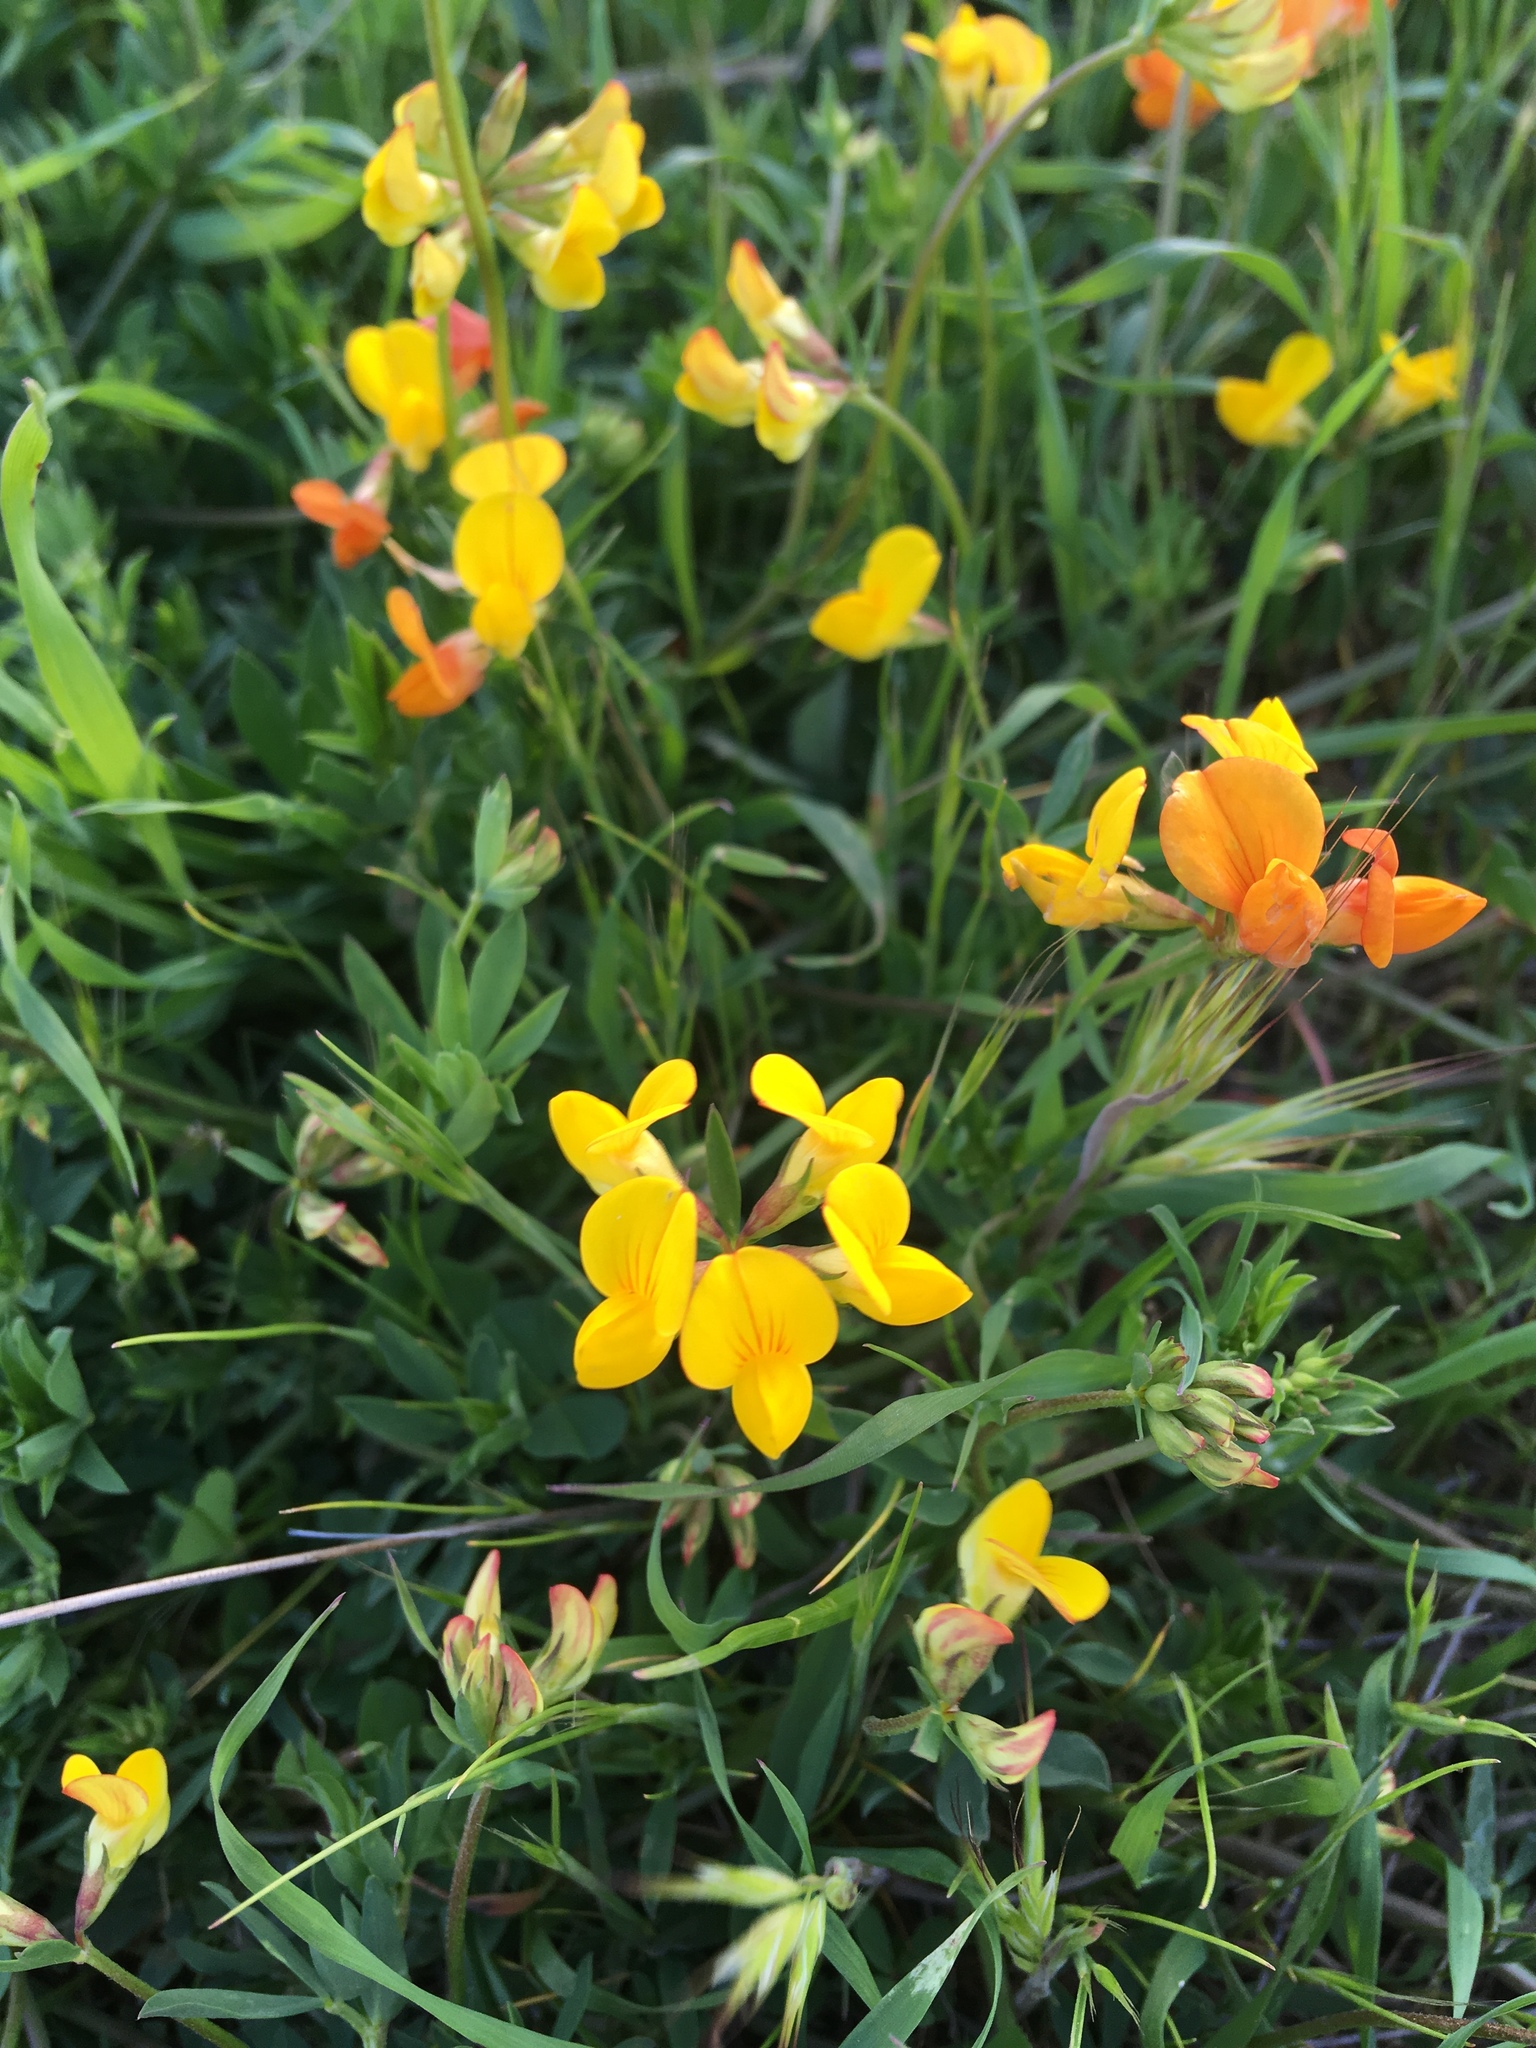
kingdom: Plantae
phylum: Tracheophyta
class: Magnoliopsida
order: Fabales
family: Fabaceae
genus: Lotus
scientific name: Lotus corniculatus
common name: Common bird's-foot-trefoil
